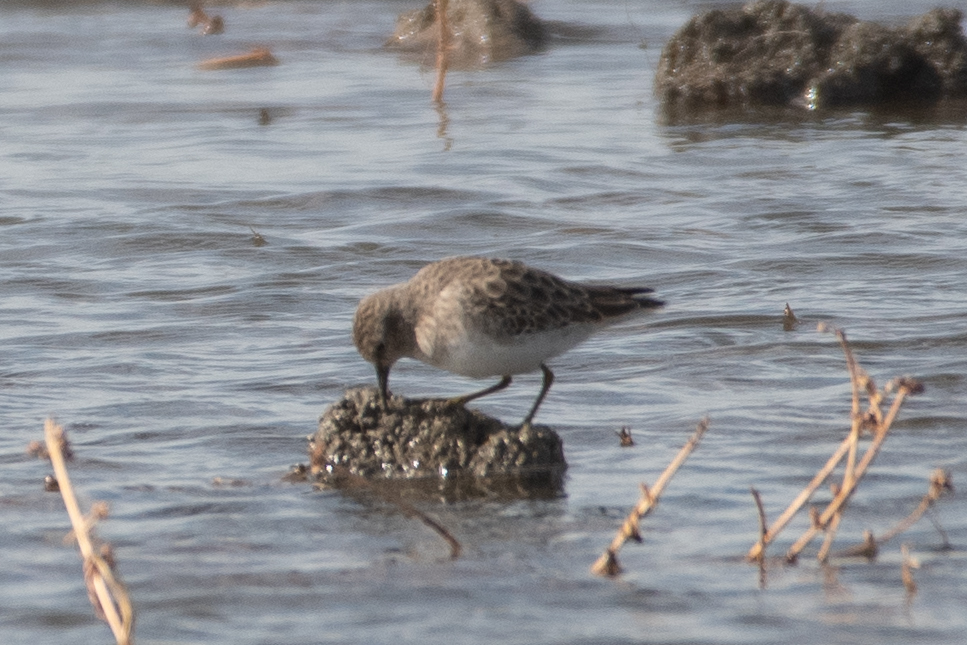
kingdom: Animalia
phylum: Chordata
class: Aves
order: Charadriiformes
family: Scolopacidae
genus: Calidris
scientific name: Calidris minutilla
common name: Least sandpiper
